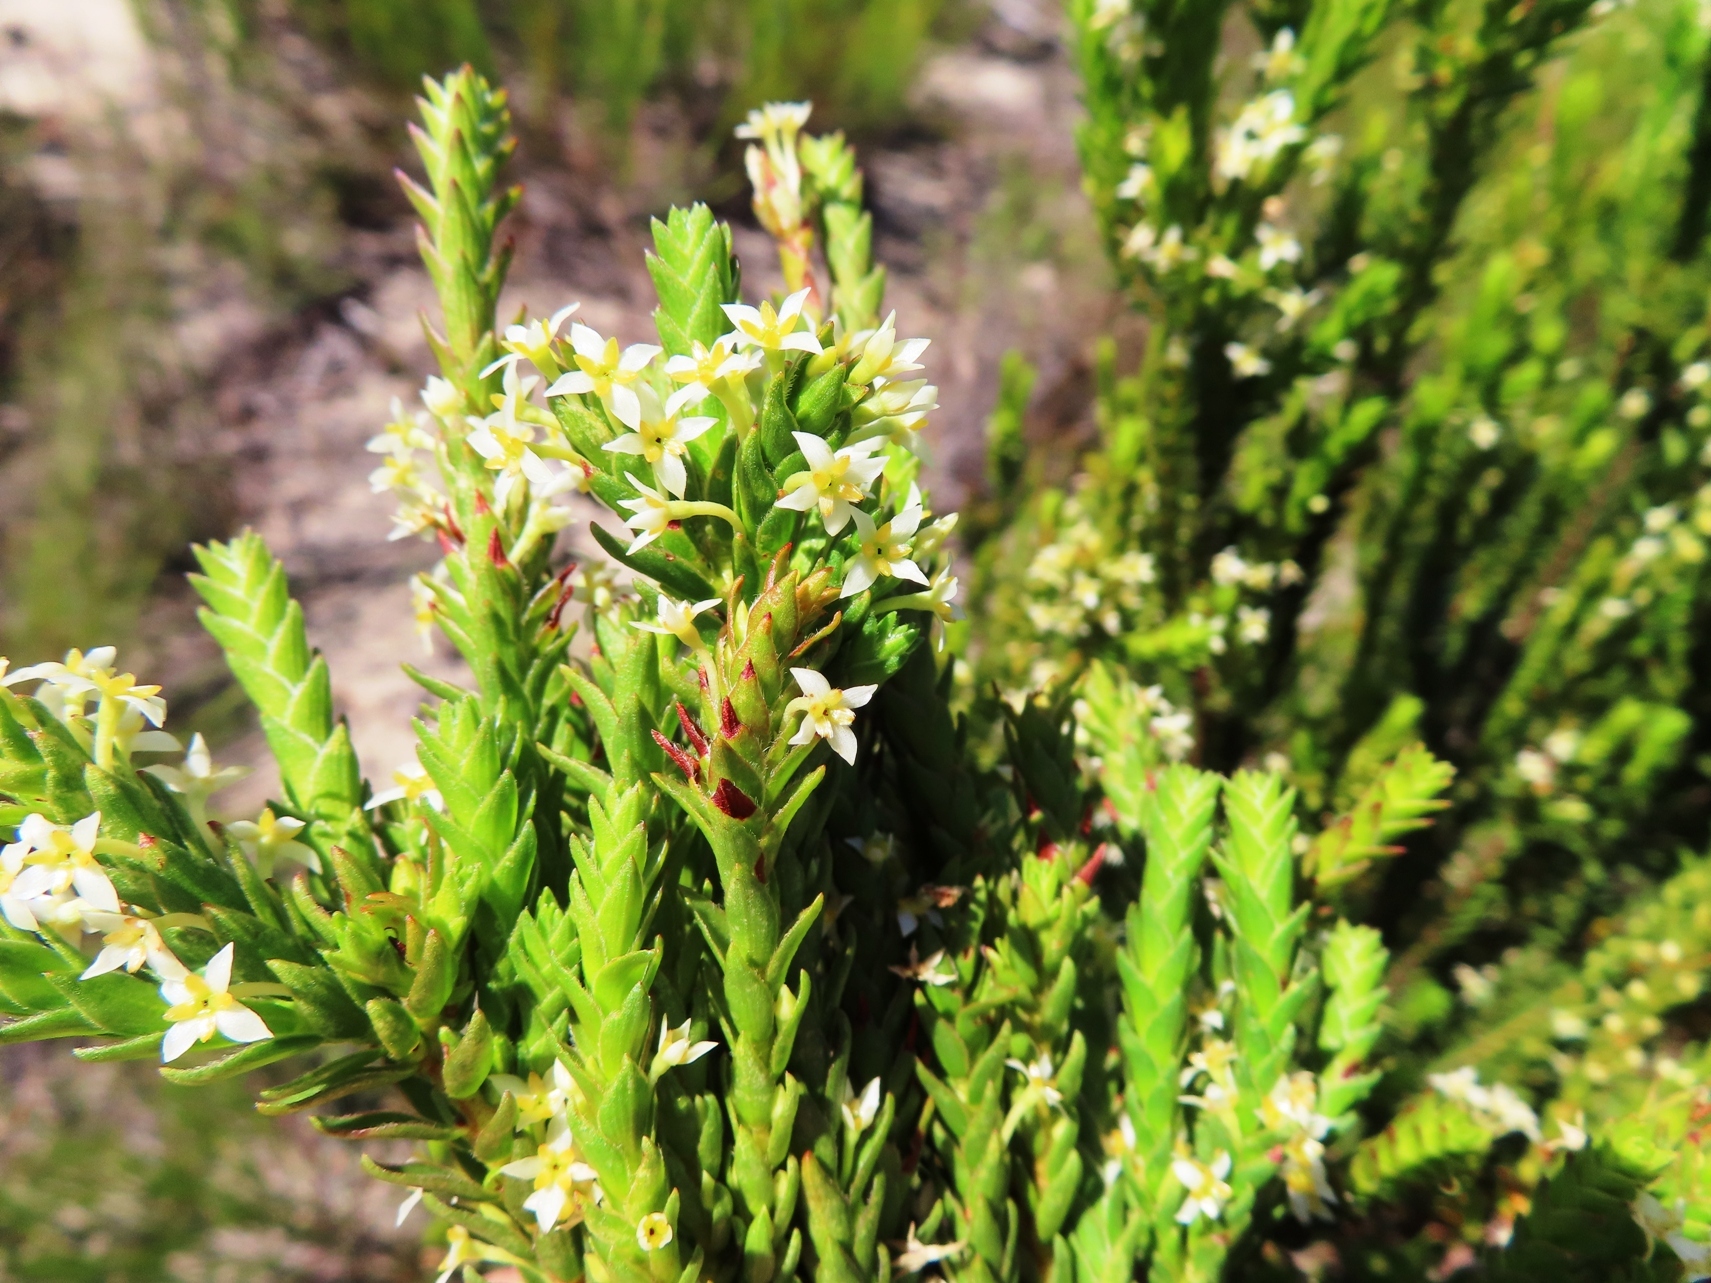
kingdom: Plantae
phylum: Tracheophyta
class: Magnoliopsida
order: Malvales
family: Thymelaeaceae
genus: Struthiola
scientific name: Struthiola striata
